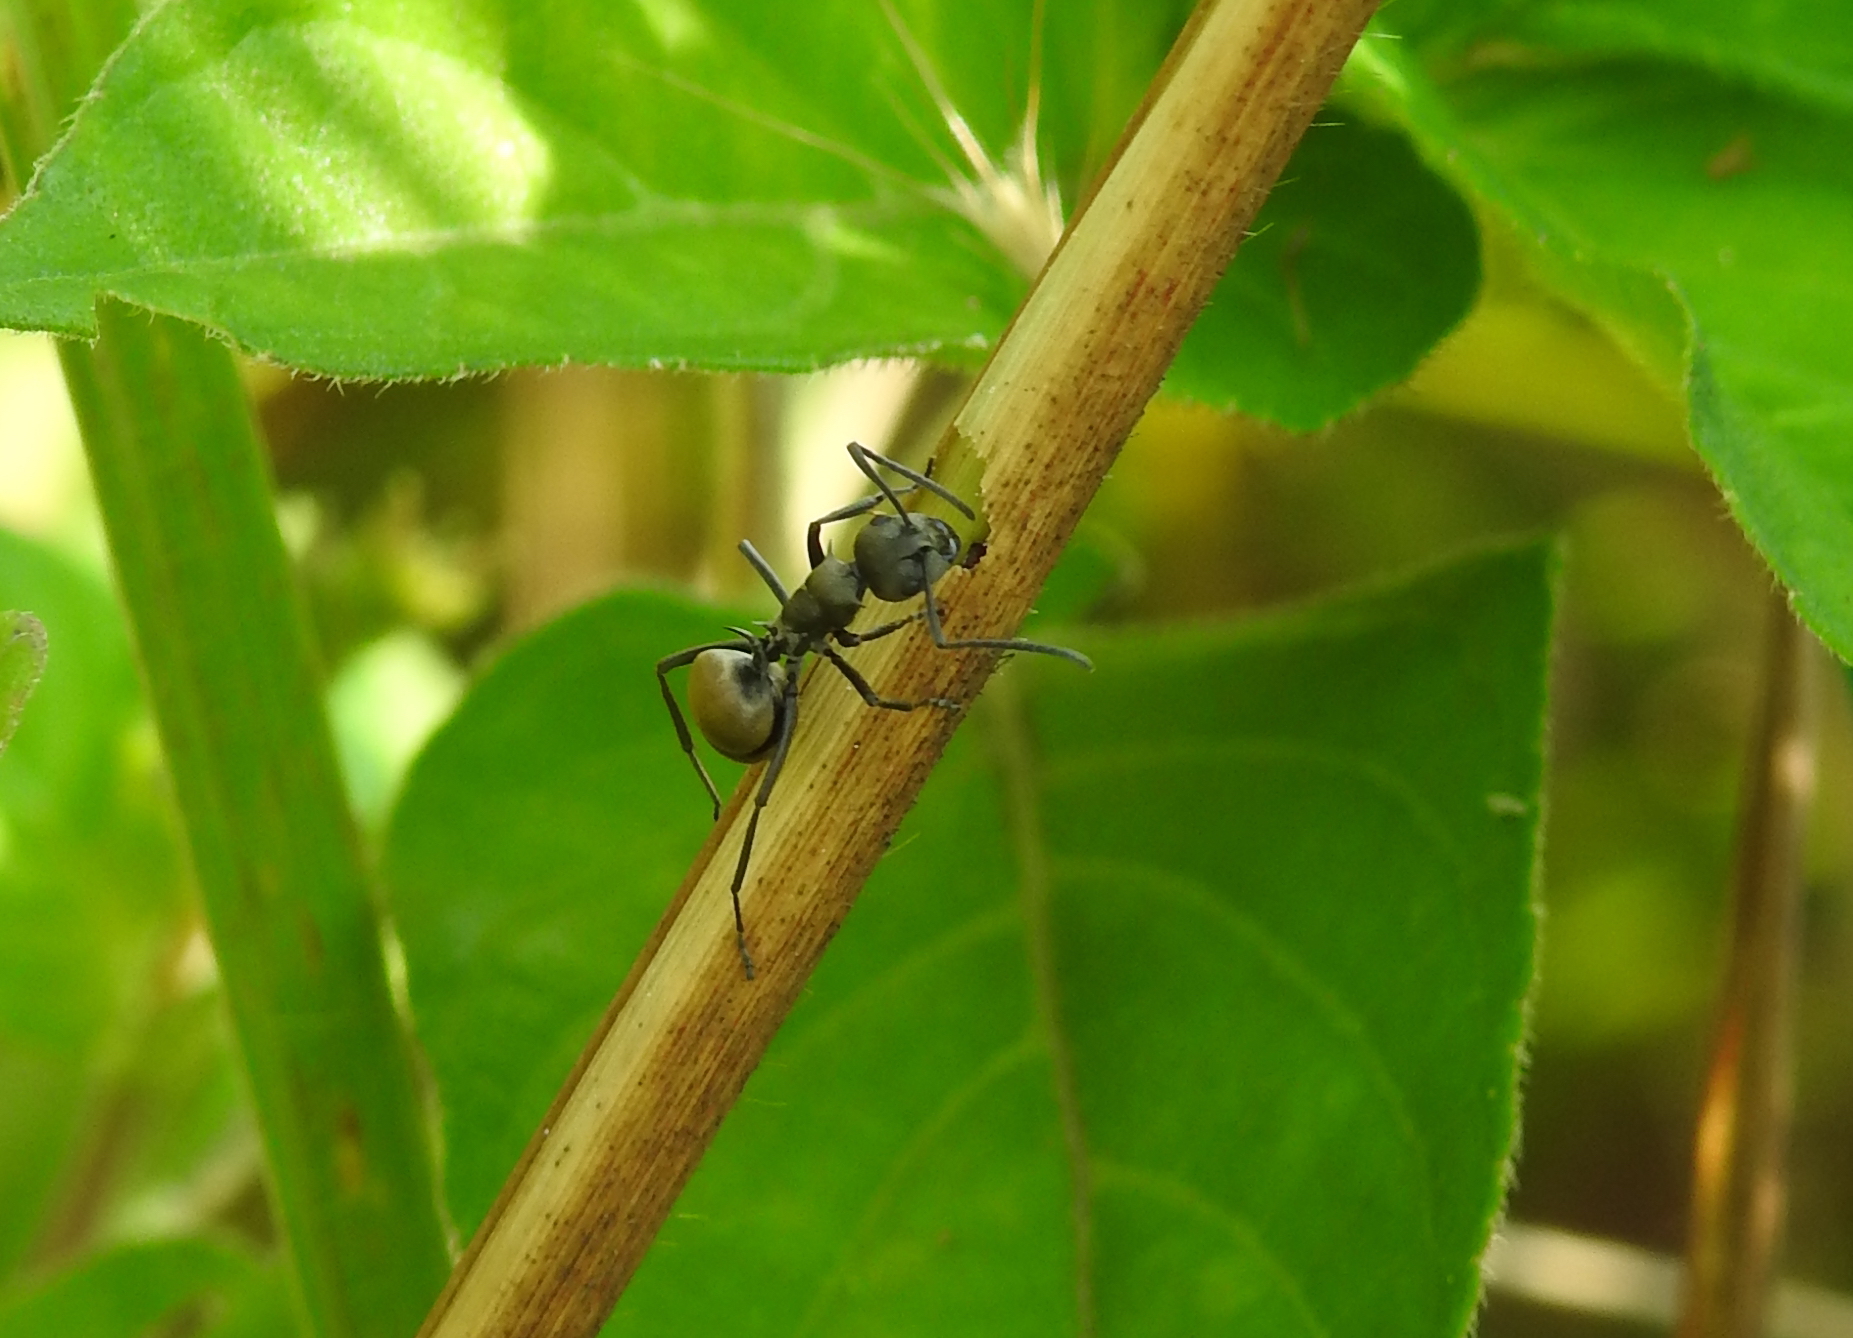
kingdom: Animalia
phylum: Arthropoda
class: Insecta
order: Hymenoptera
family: Formicidae
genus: Polyrhachis
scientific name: Polyrhachis dives
